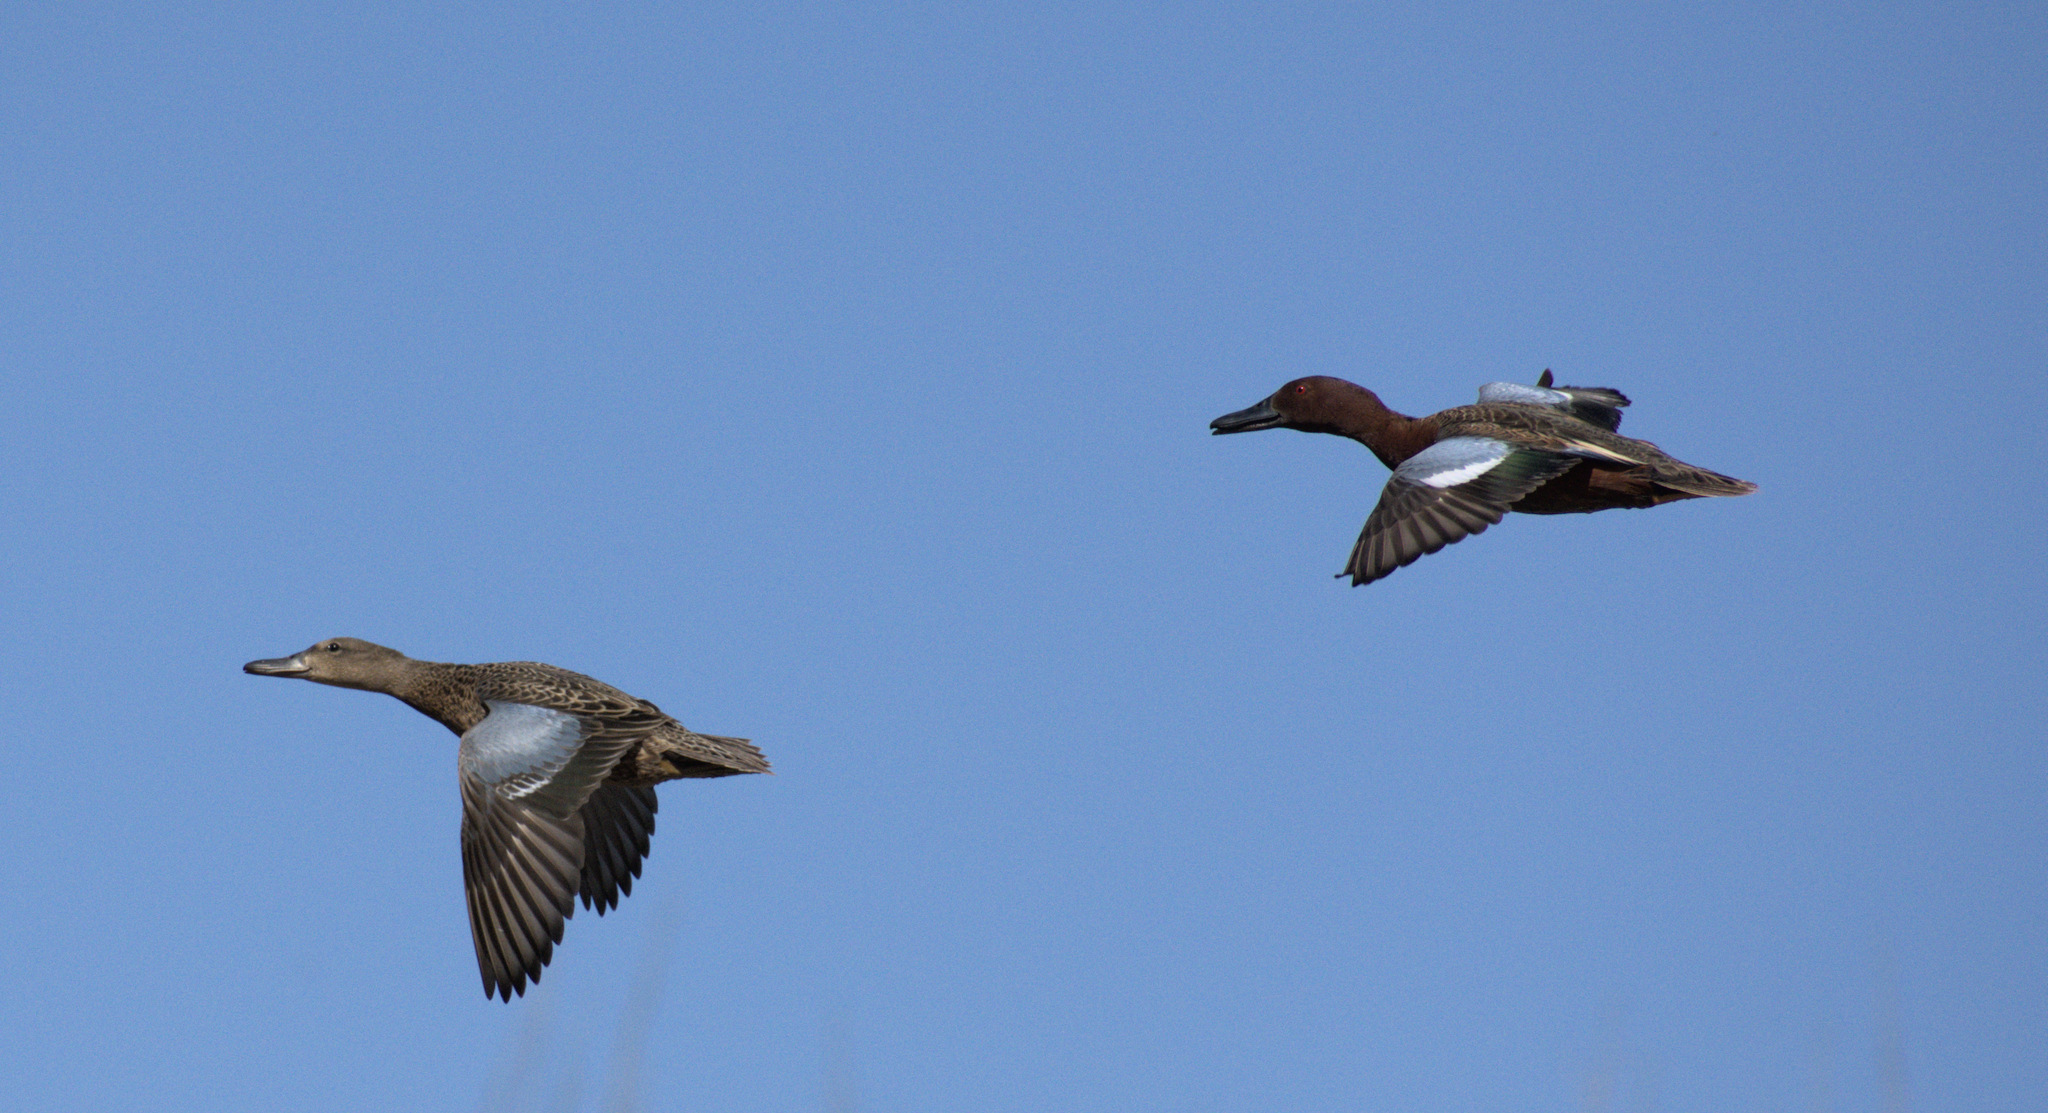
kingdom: Animalia
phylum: Chordata
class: Aves
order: Anseriformes
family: Anatidae
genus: Spatula
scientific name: Spatula cyanoptera
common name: Cinnamon teal
